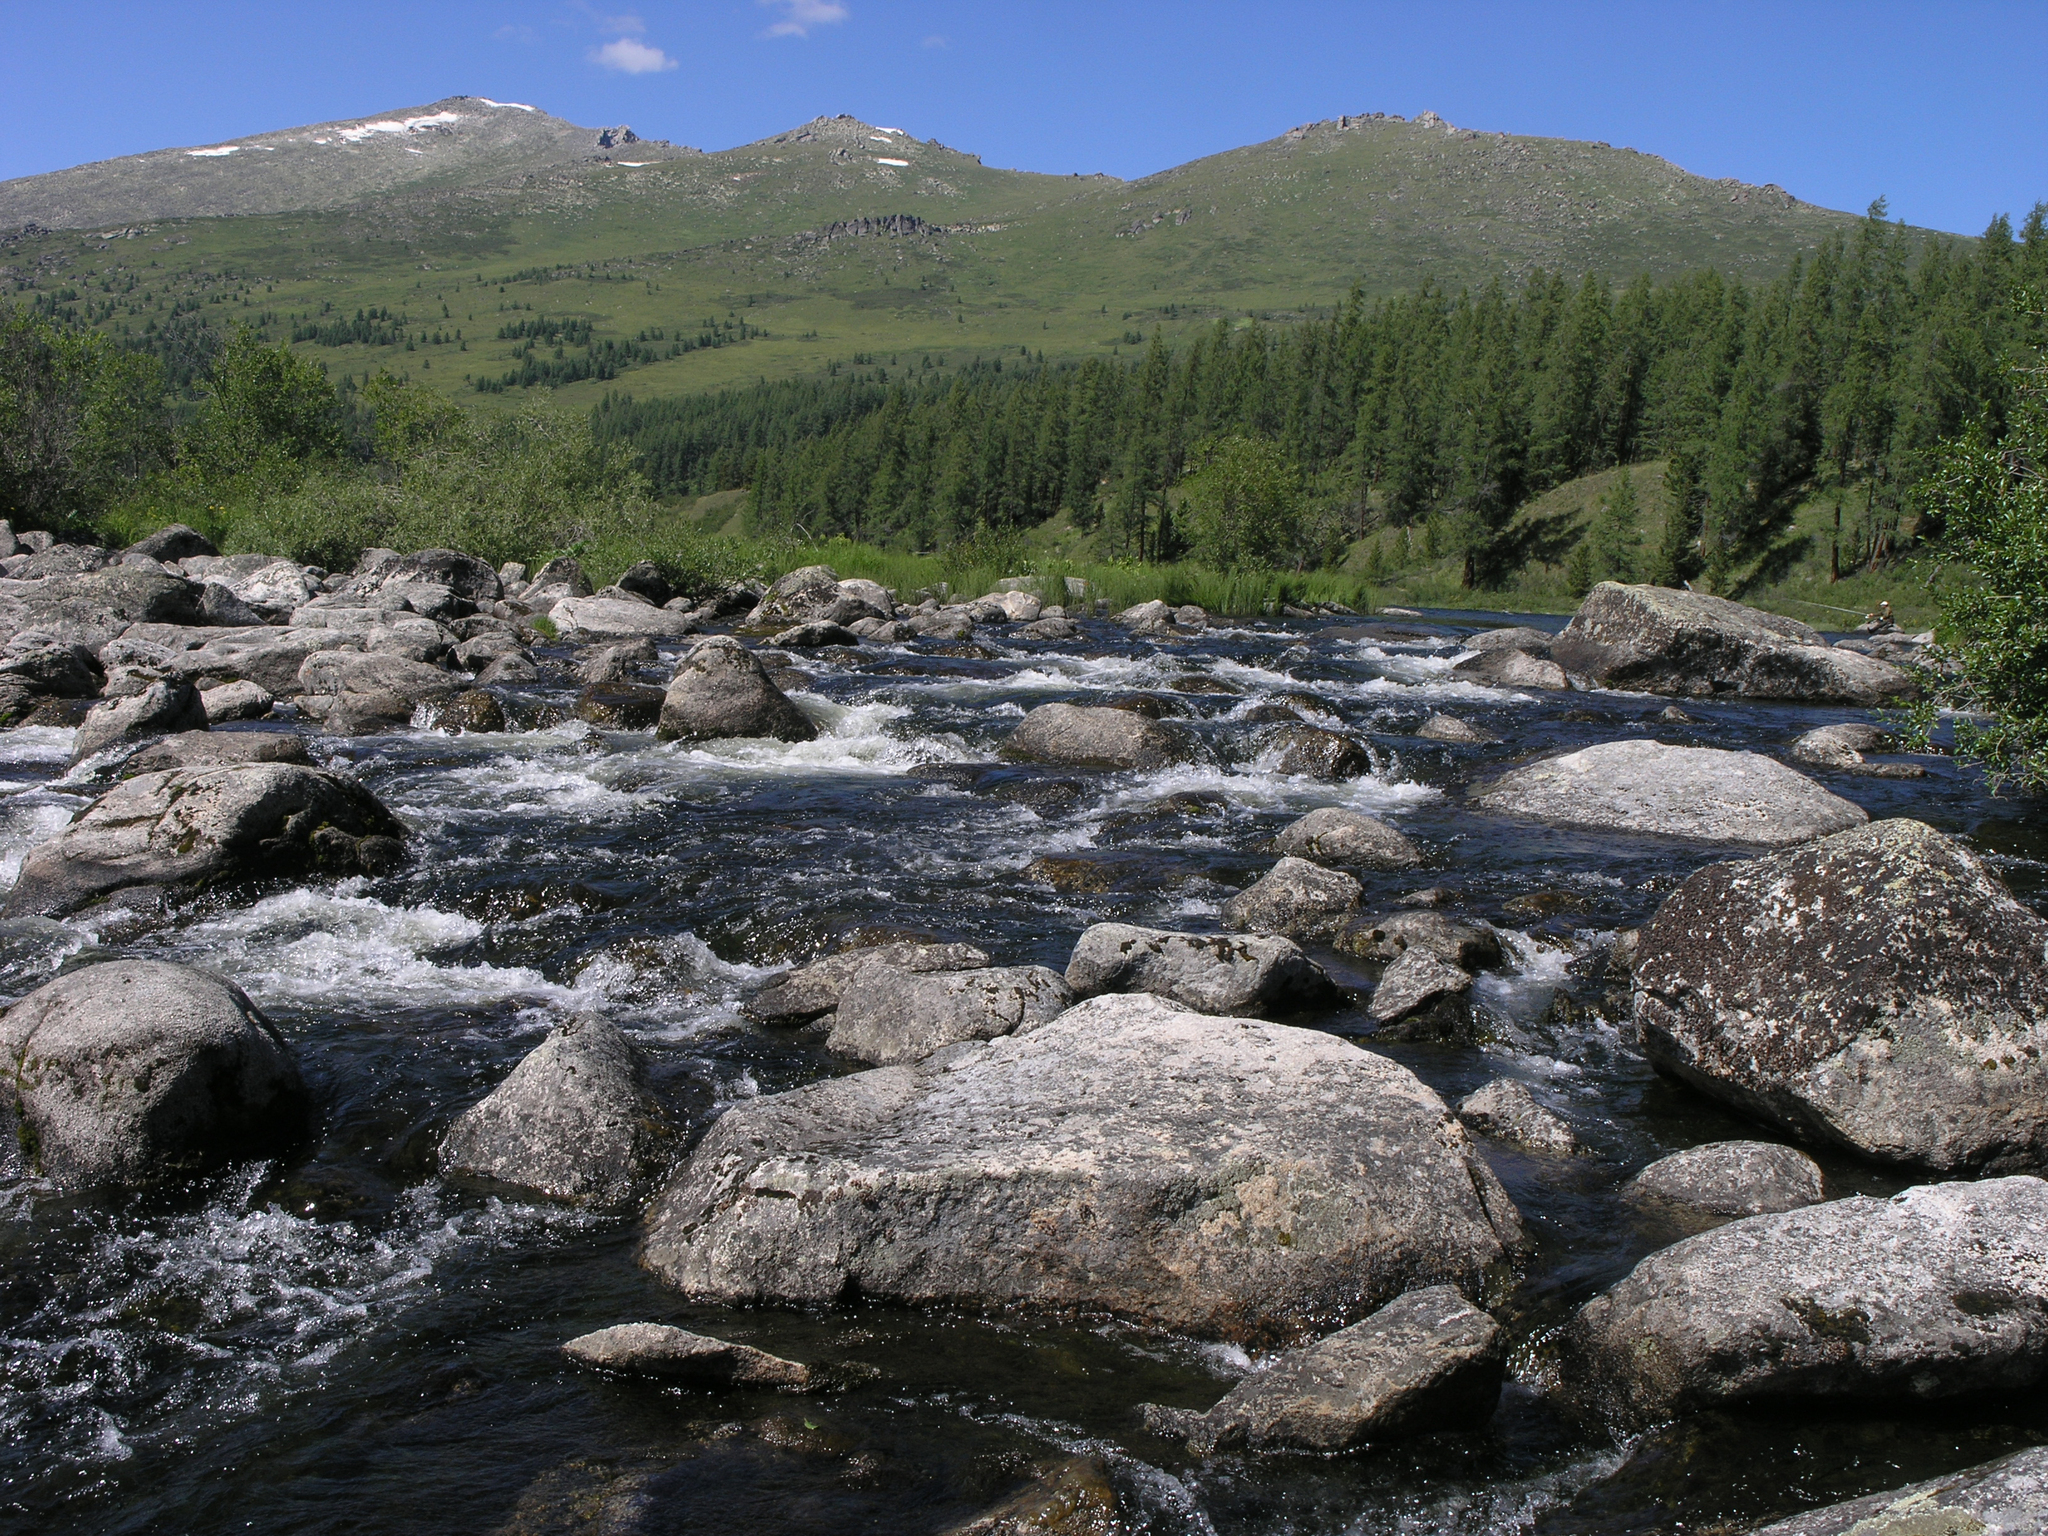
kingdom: Plantae
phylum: Tracheophyta
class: Pinopsida
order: Pinales
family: Pinaceae
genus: Larix
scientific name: Larix sibirica
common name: Siberian larch
